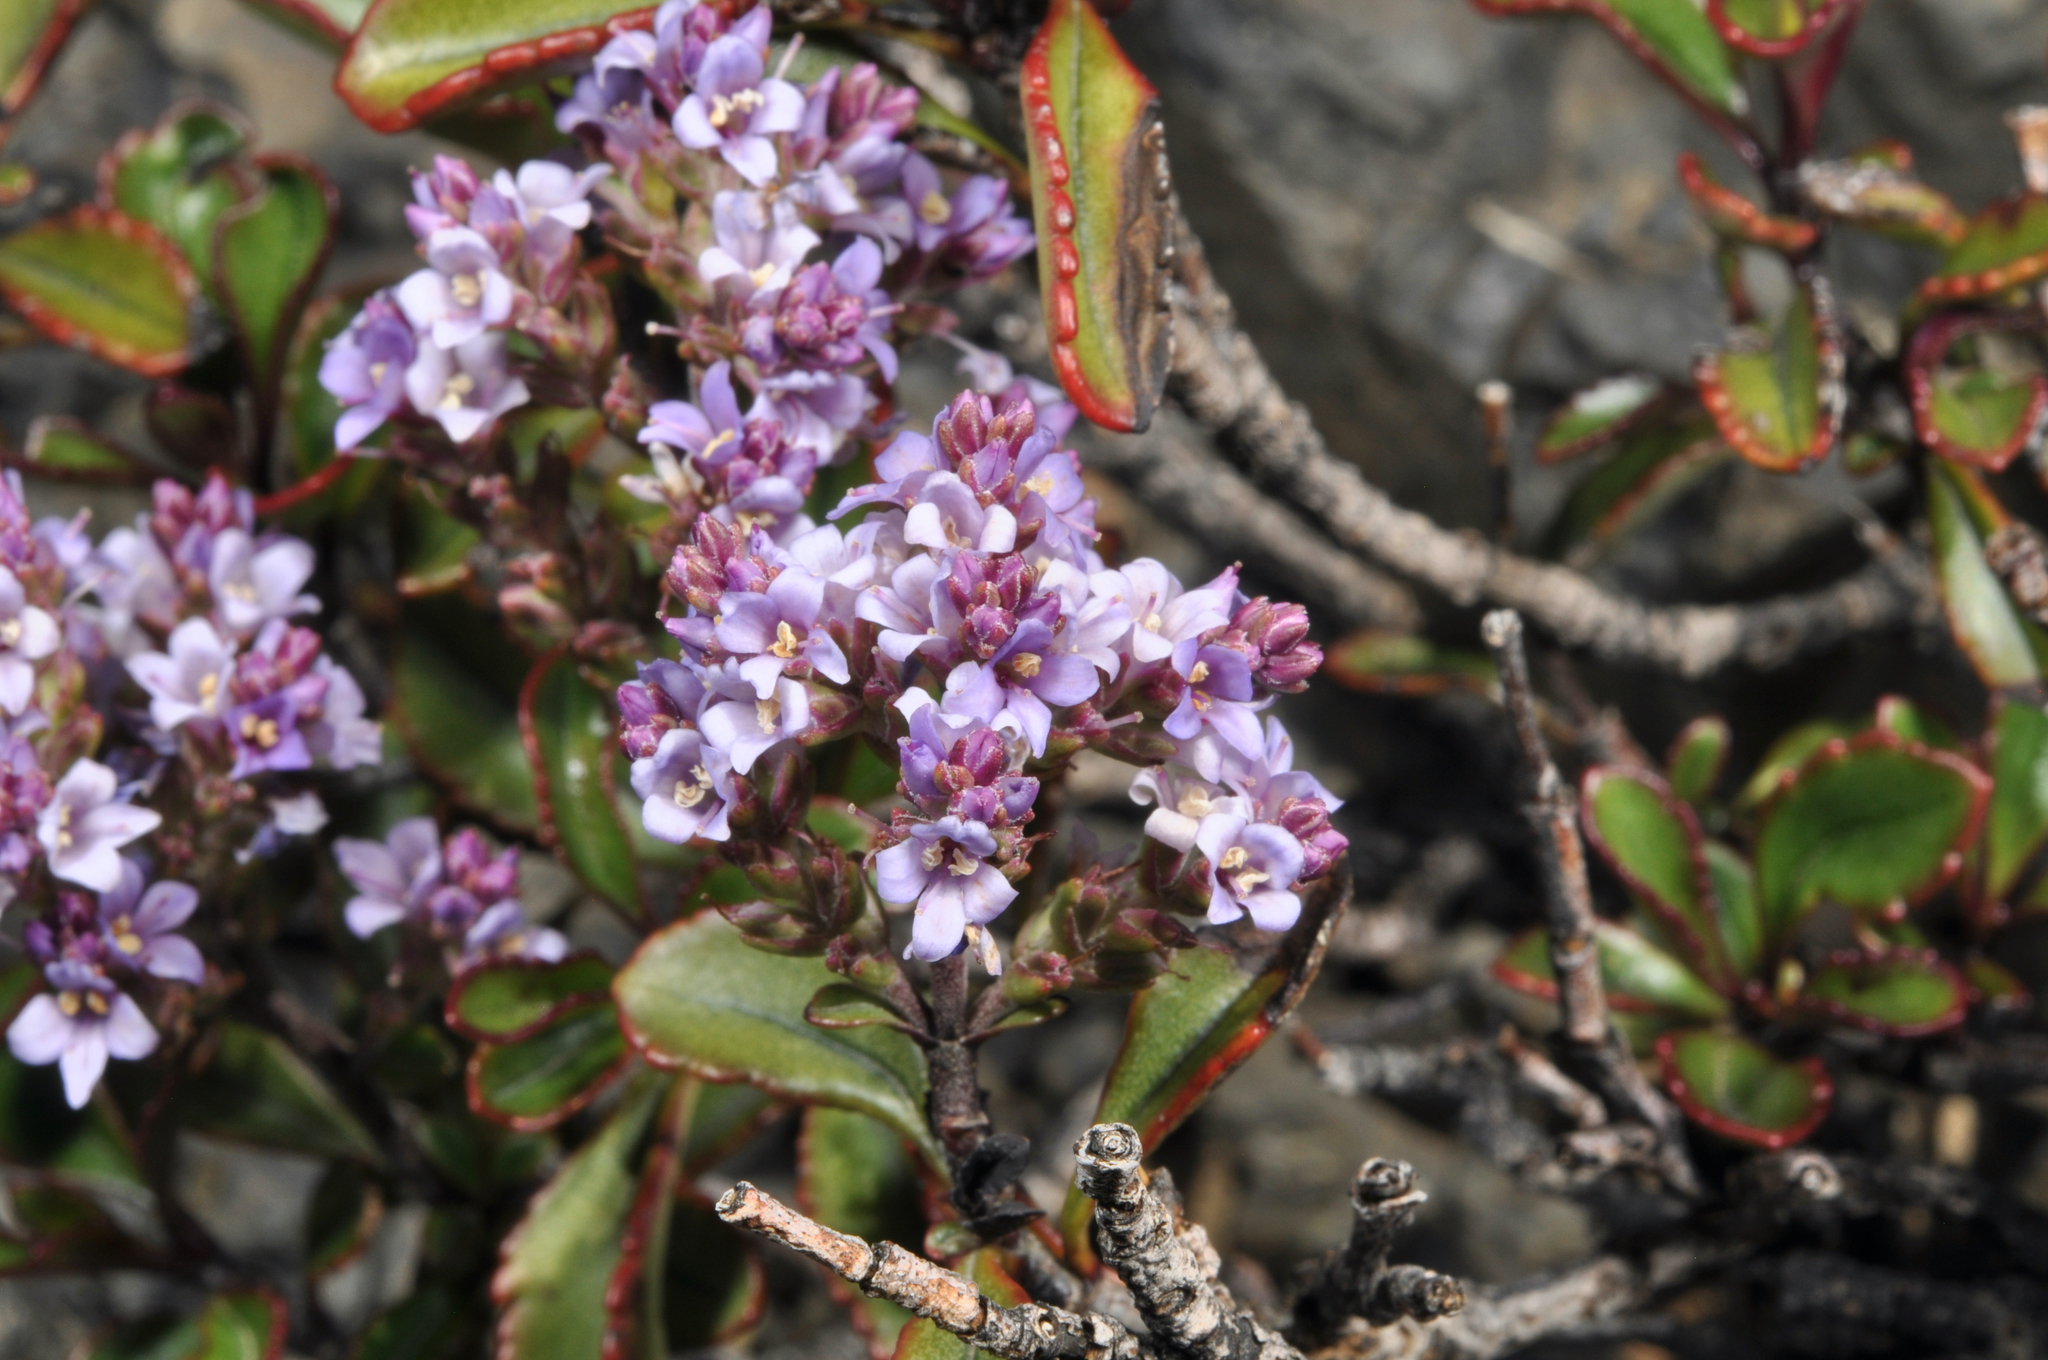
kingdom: Plantae
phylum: Tracheophyta
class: Magnoliopsida
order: Lamiales
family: Plantaginaceae
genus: Veronica
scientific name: Veronica scrupea
